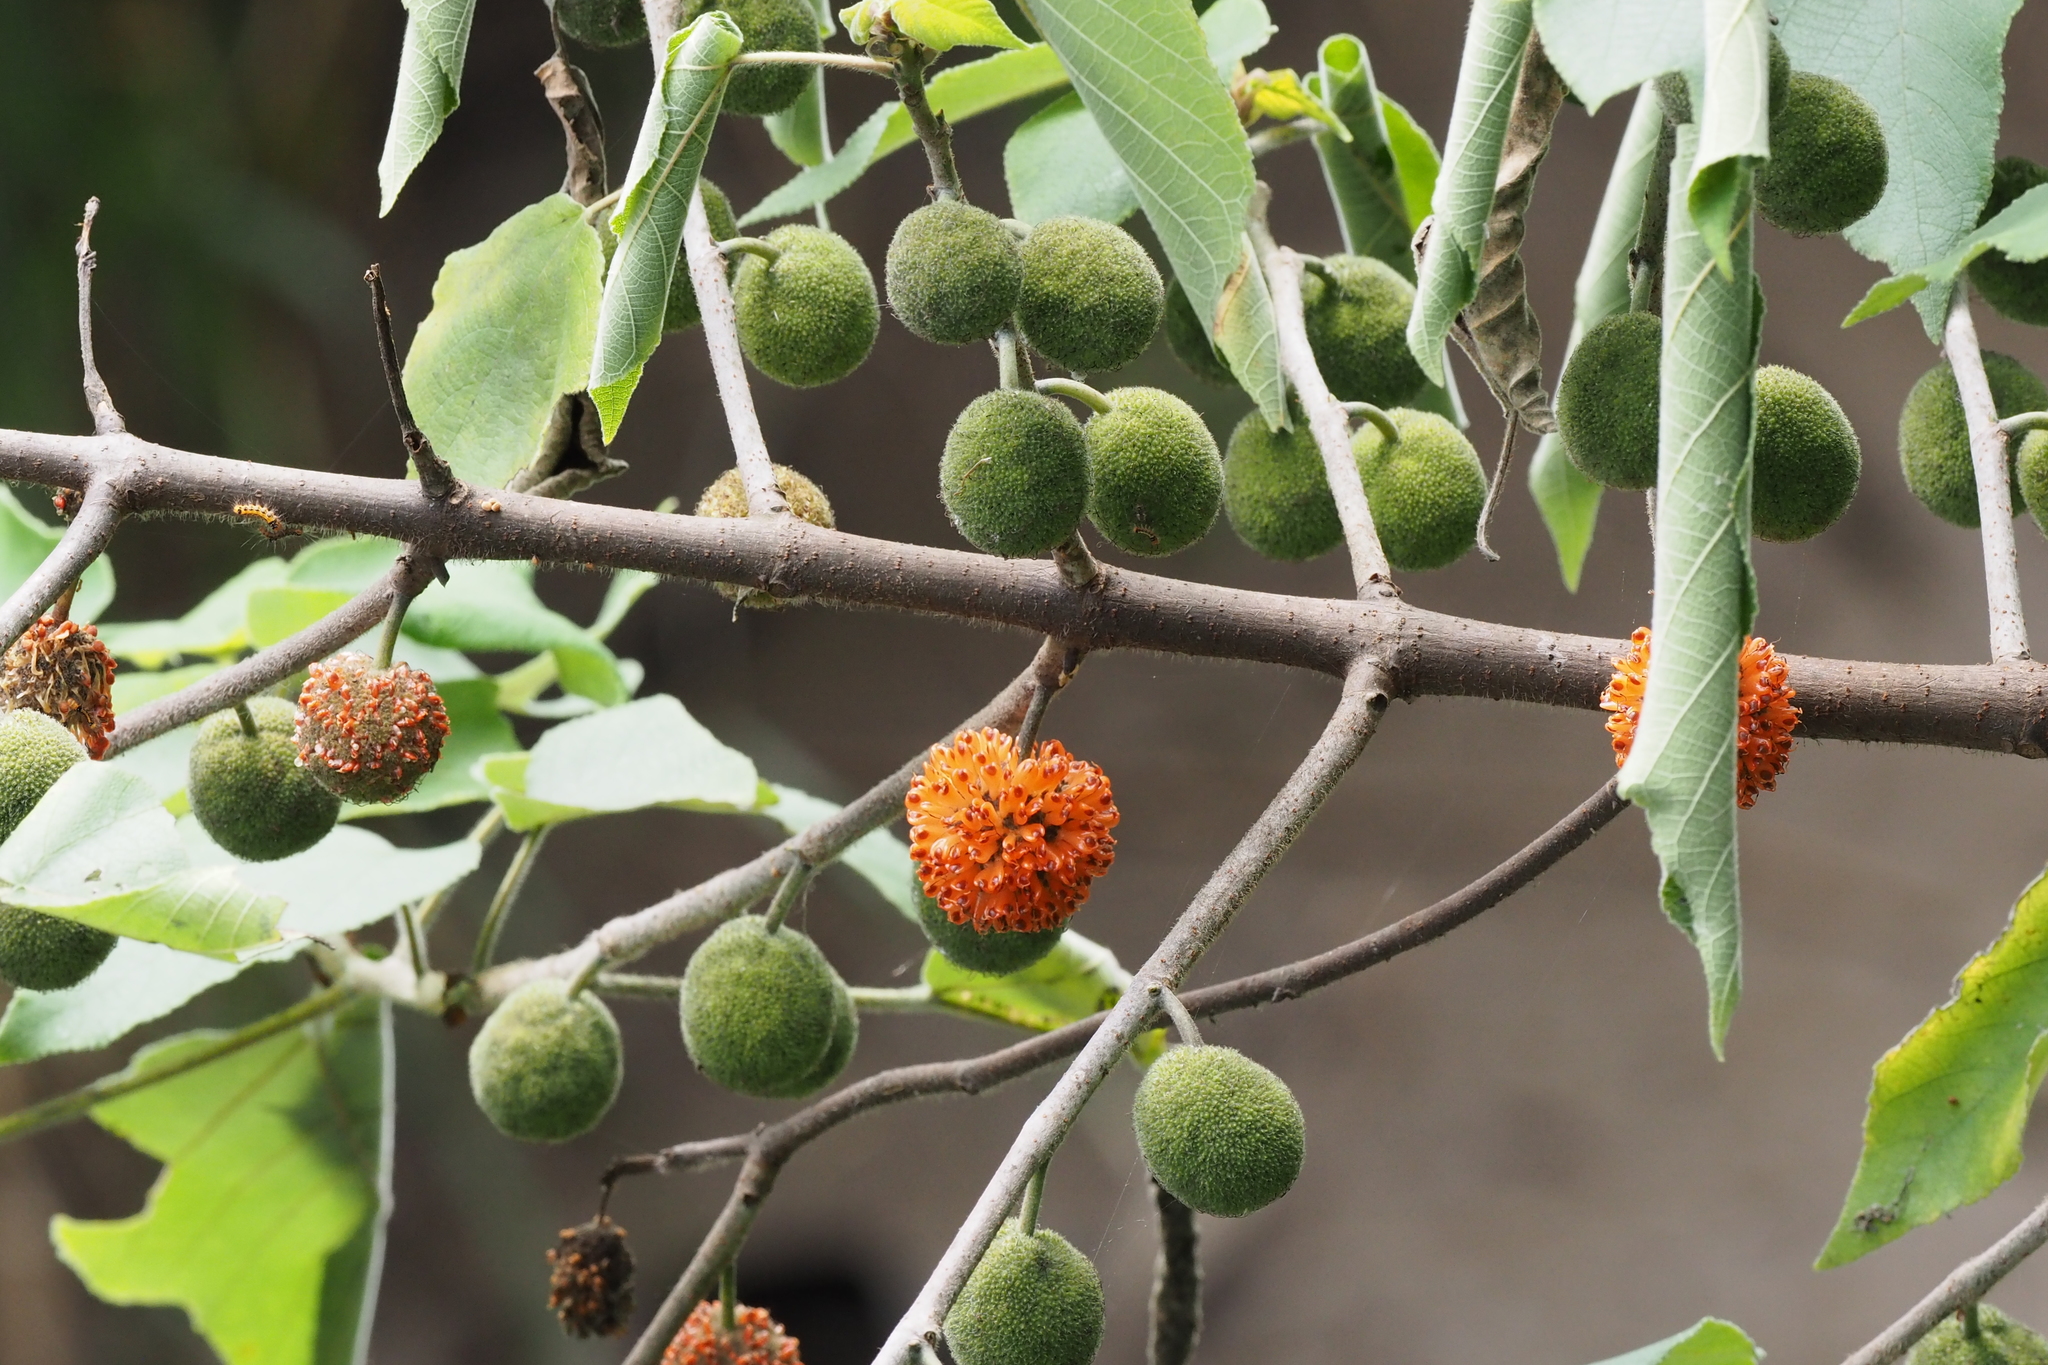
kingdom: Plantae
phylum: Tracheophyta
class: Magnoliopsida
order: Rosales
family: Moraceae
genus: Broussonetia
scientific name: Broussonetia papyrifera
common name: Paper mulberry
